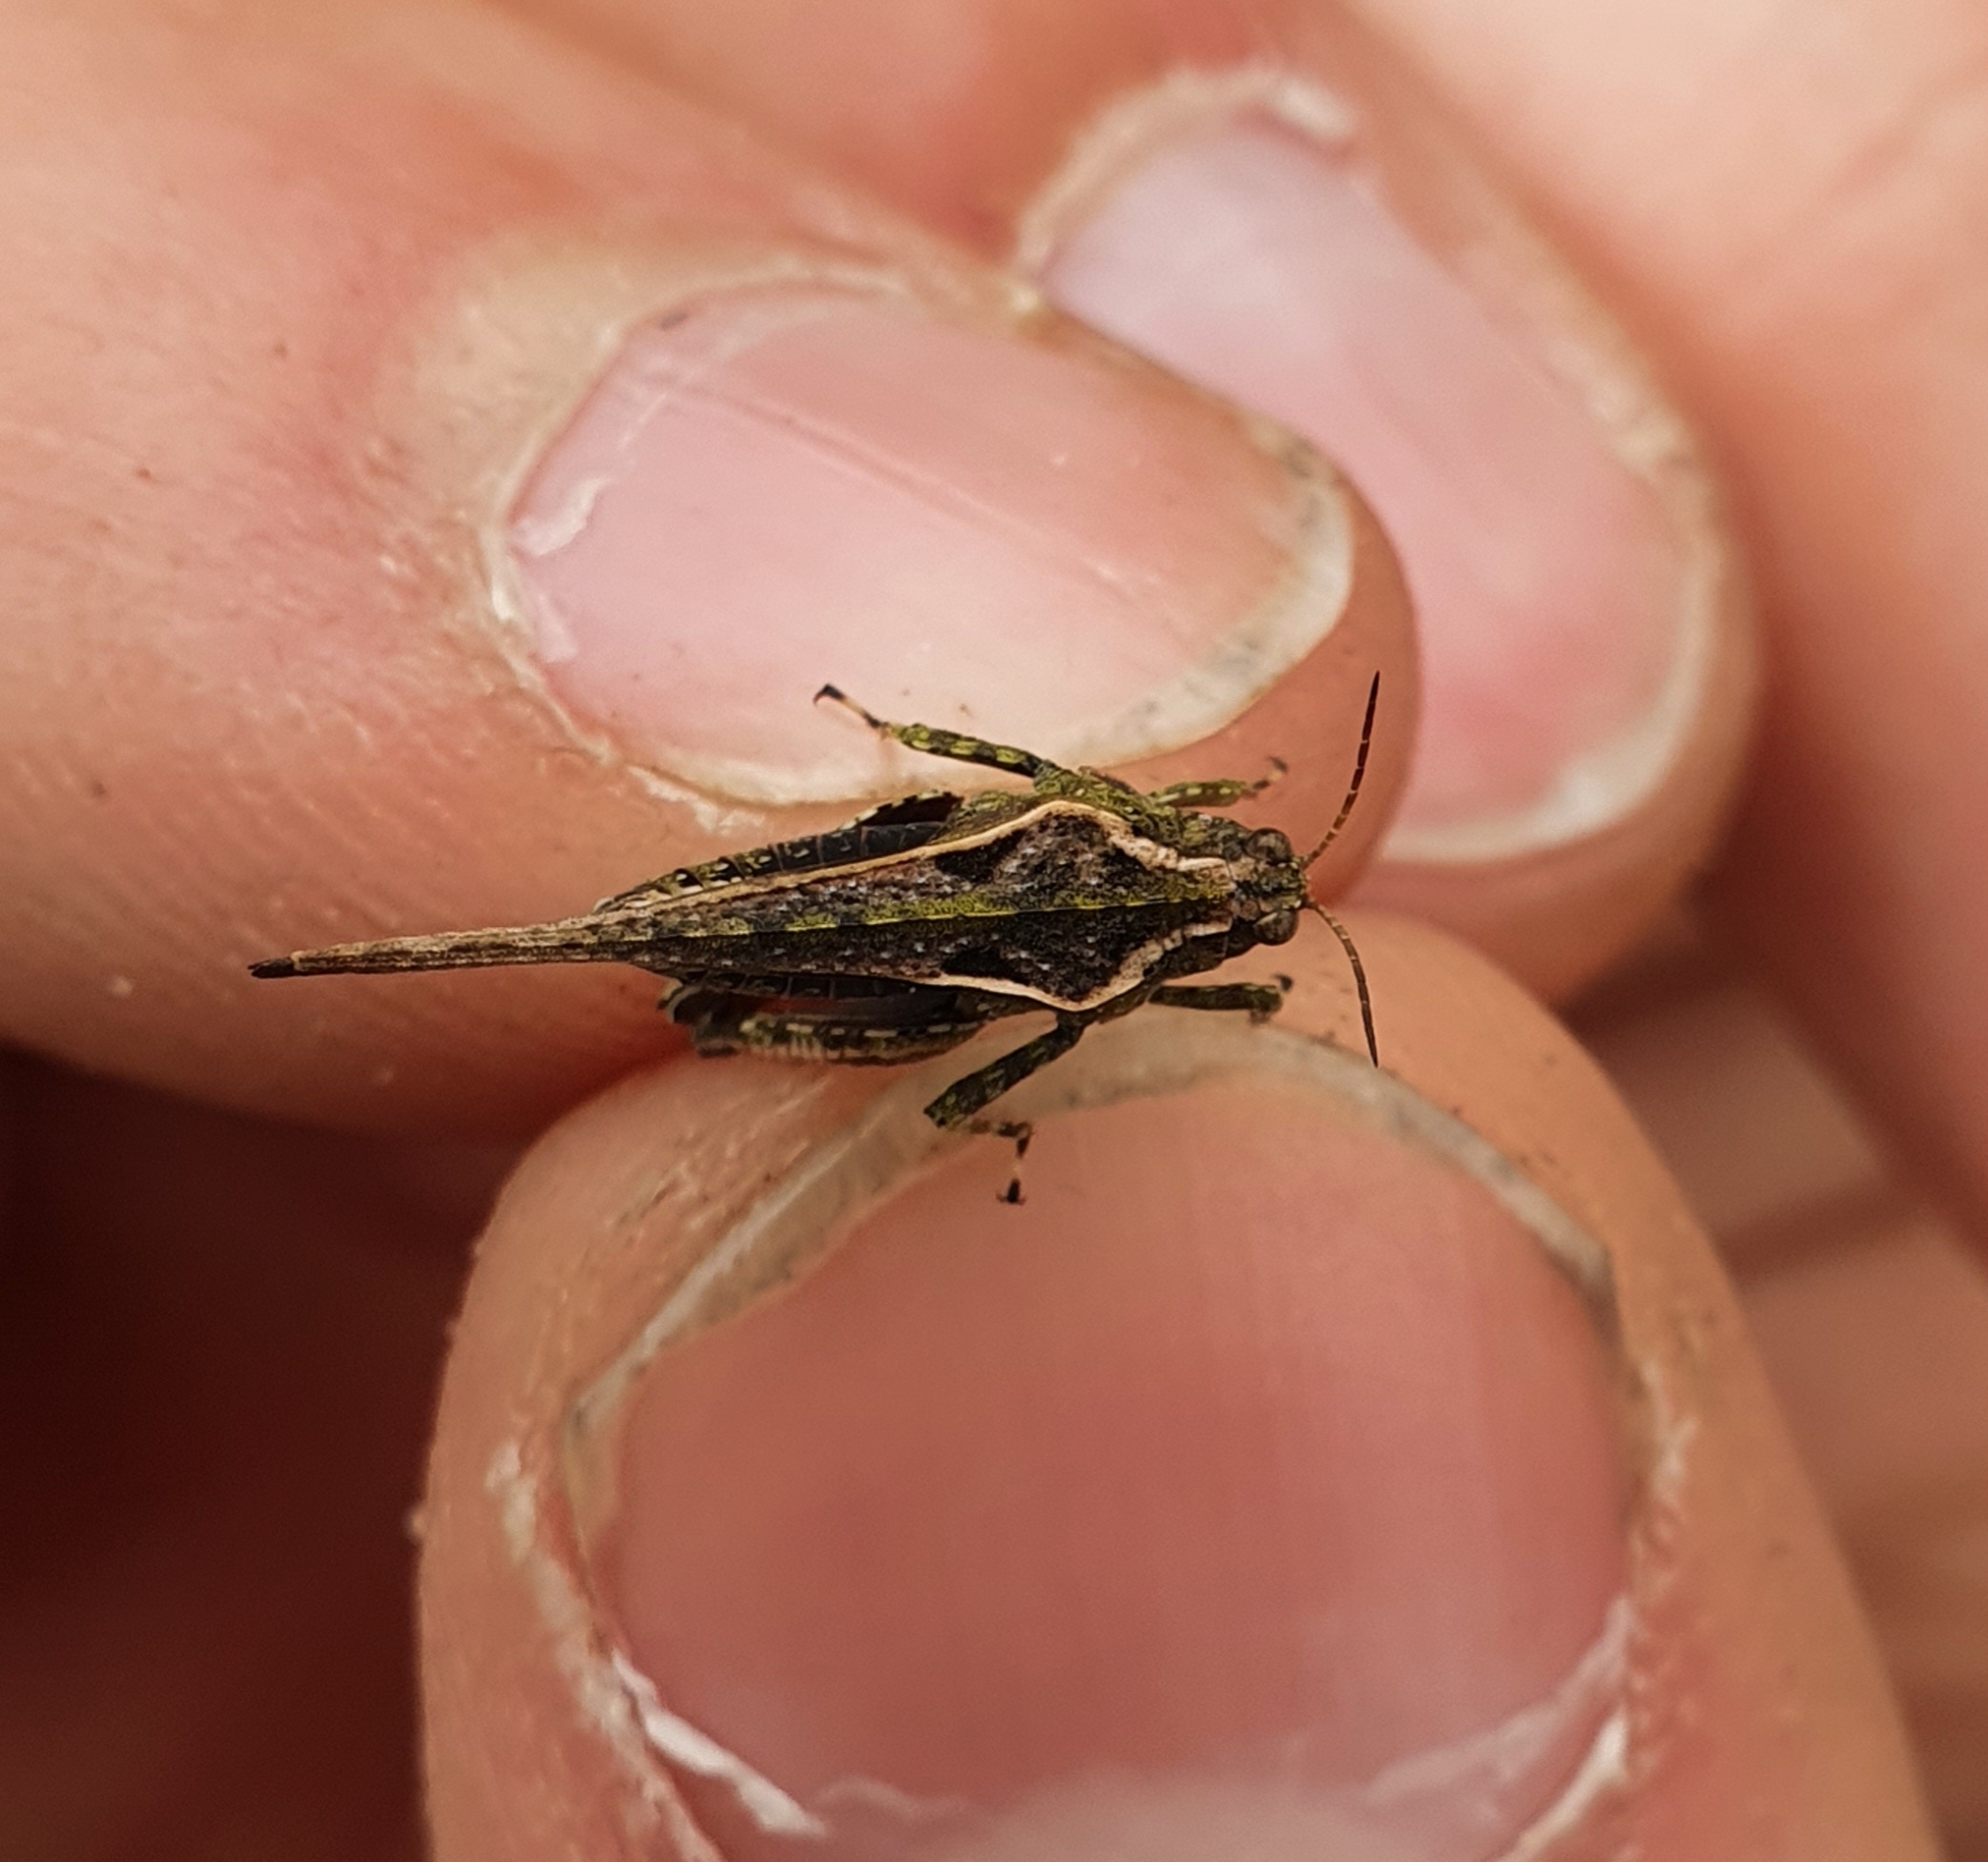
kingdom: Animalia
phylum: Arthropoda
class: Insecta
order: Orthoptera
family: Tetrigidae
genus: Tetrix
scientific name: Tetrix ceperoi
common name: Cepero's ground-hopper
